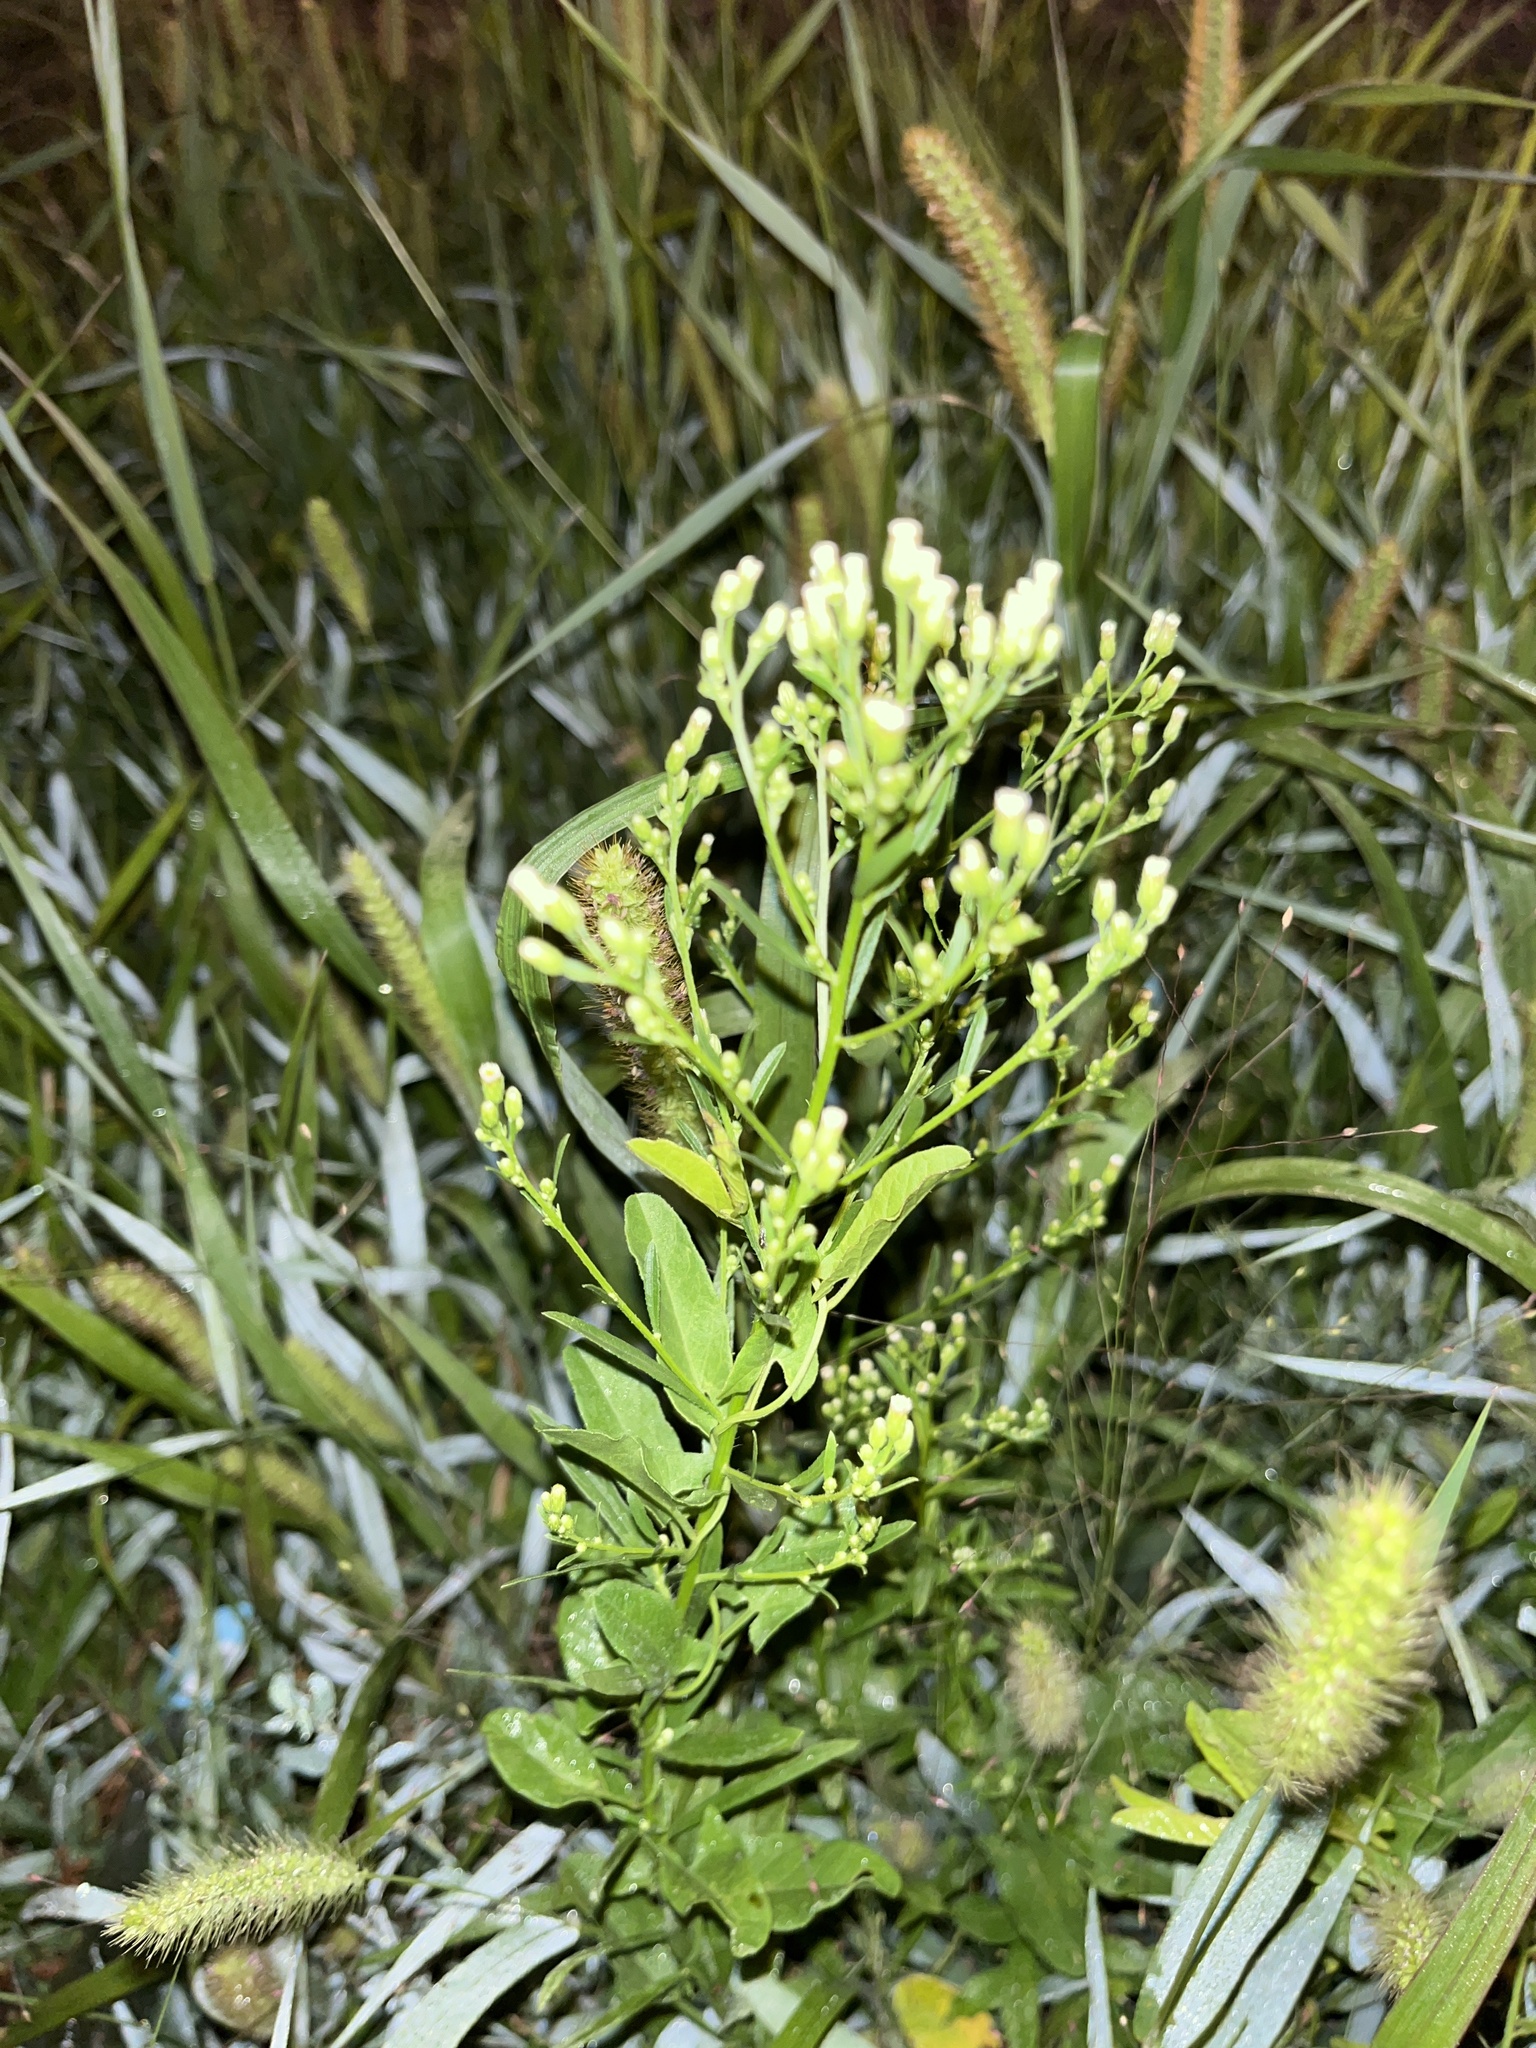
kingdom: Plantae
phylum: Tracheophyta
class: Magnoliopsida
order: Asterales
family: Asteraceae
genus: Erigeron
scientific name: Erigeron canadensis
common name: Canadian fleabane
